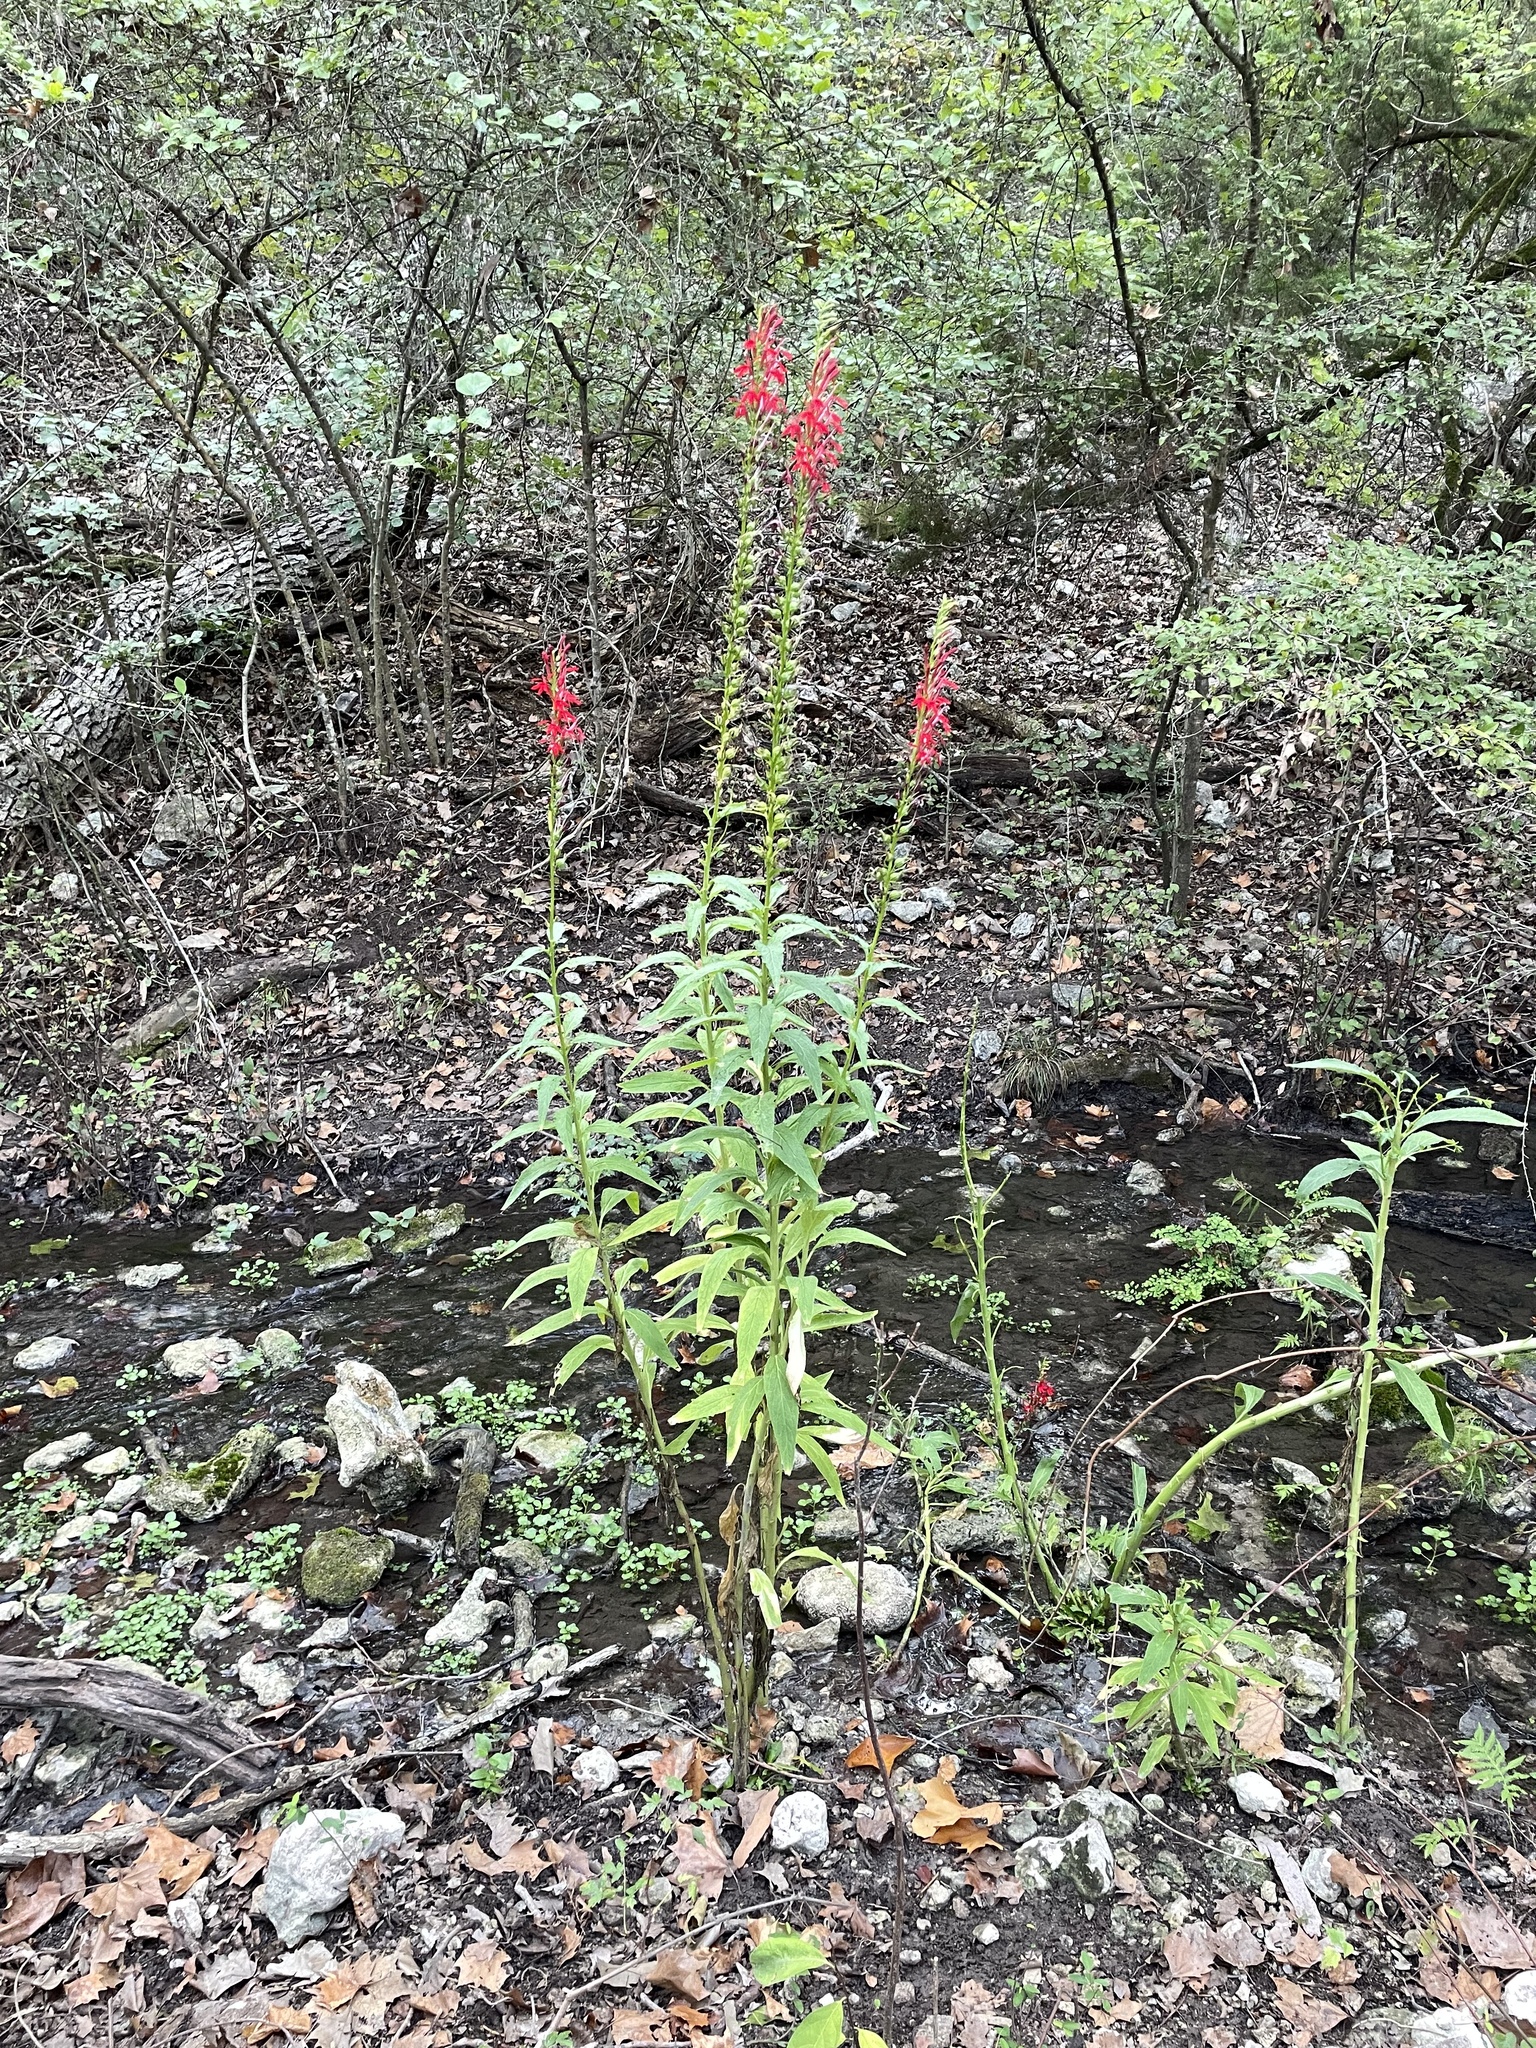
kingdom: Plantae
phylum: Tracheophyta
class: Magnoliopsida
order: Asterales
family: Campanulaceae
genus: Lobelia
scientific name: Lobelia cardinalis
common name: Cardinal flower
